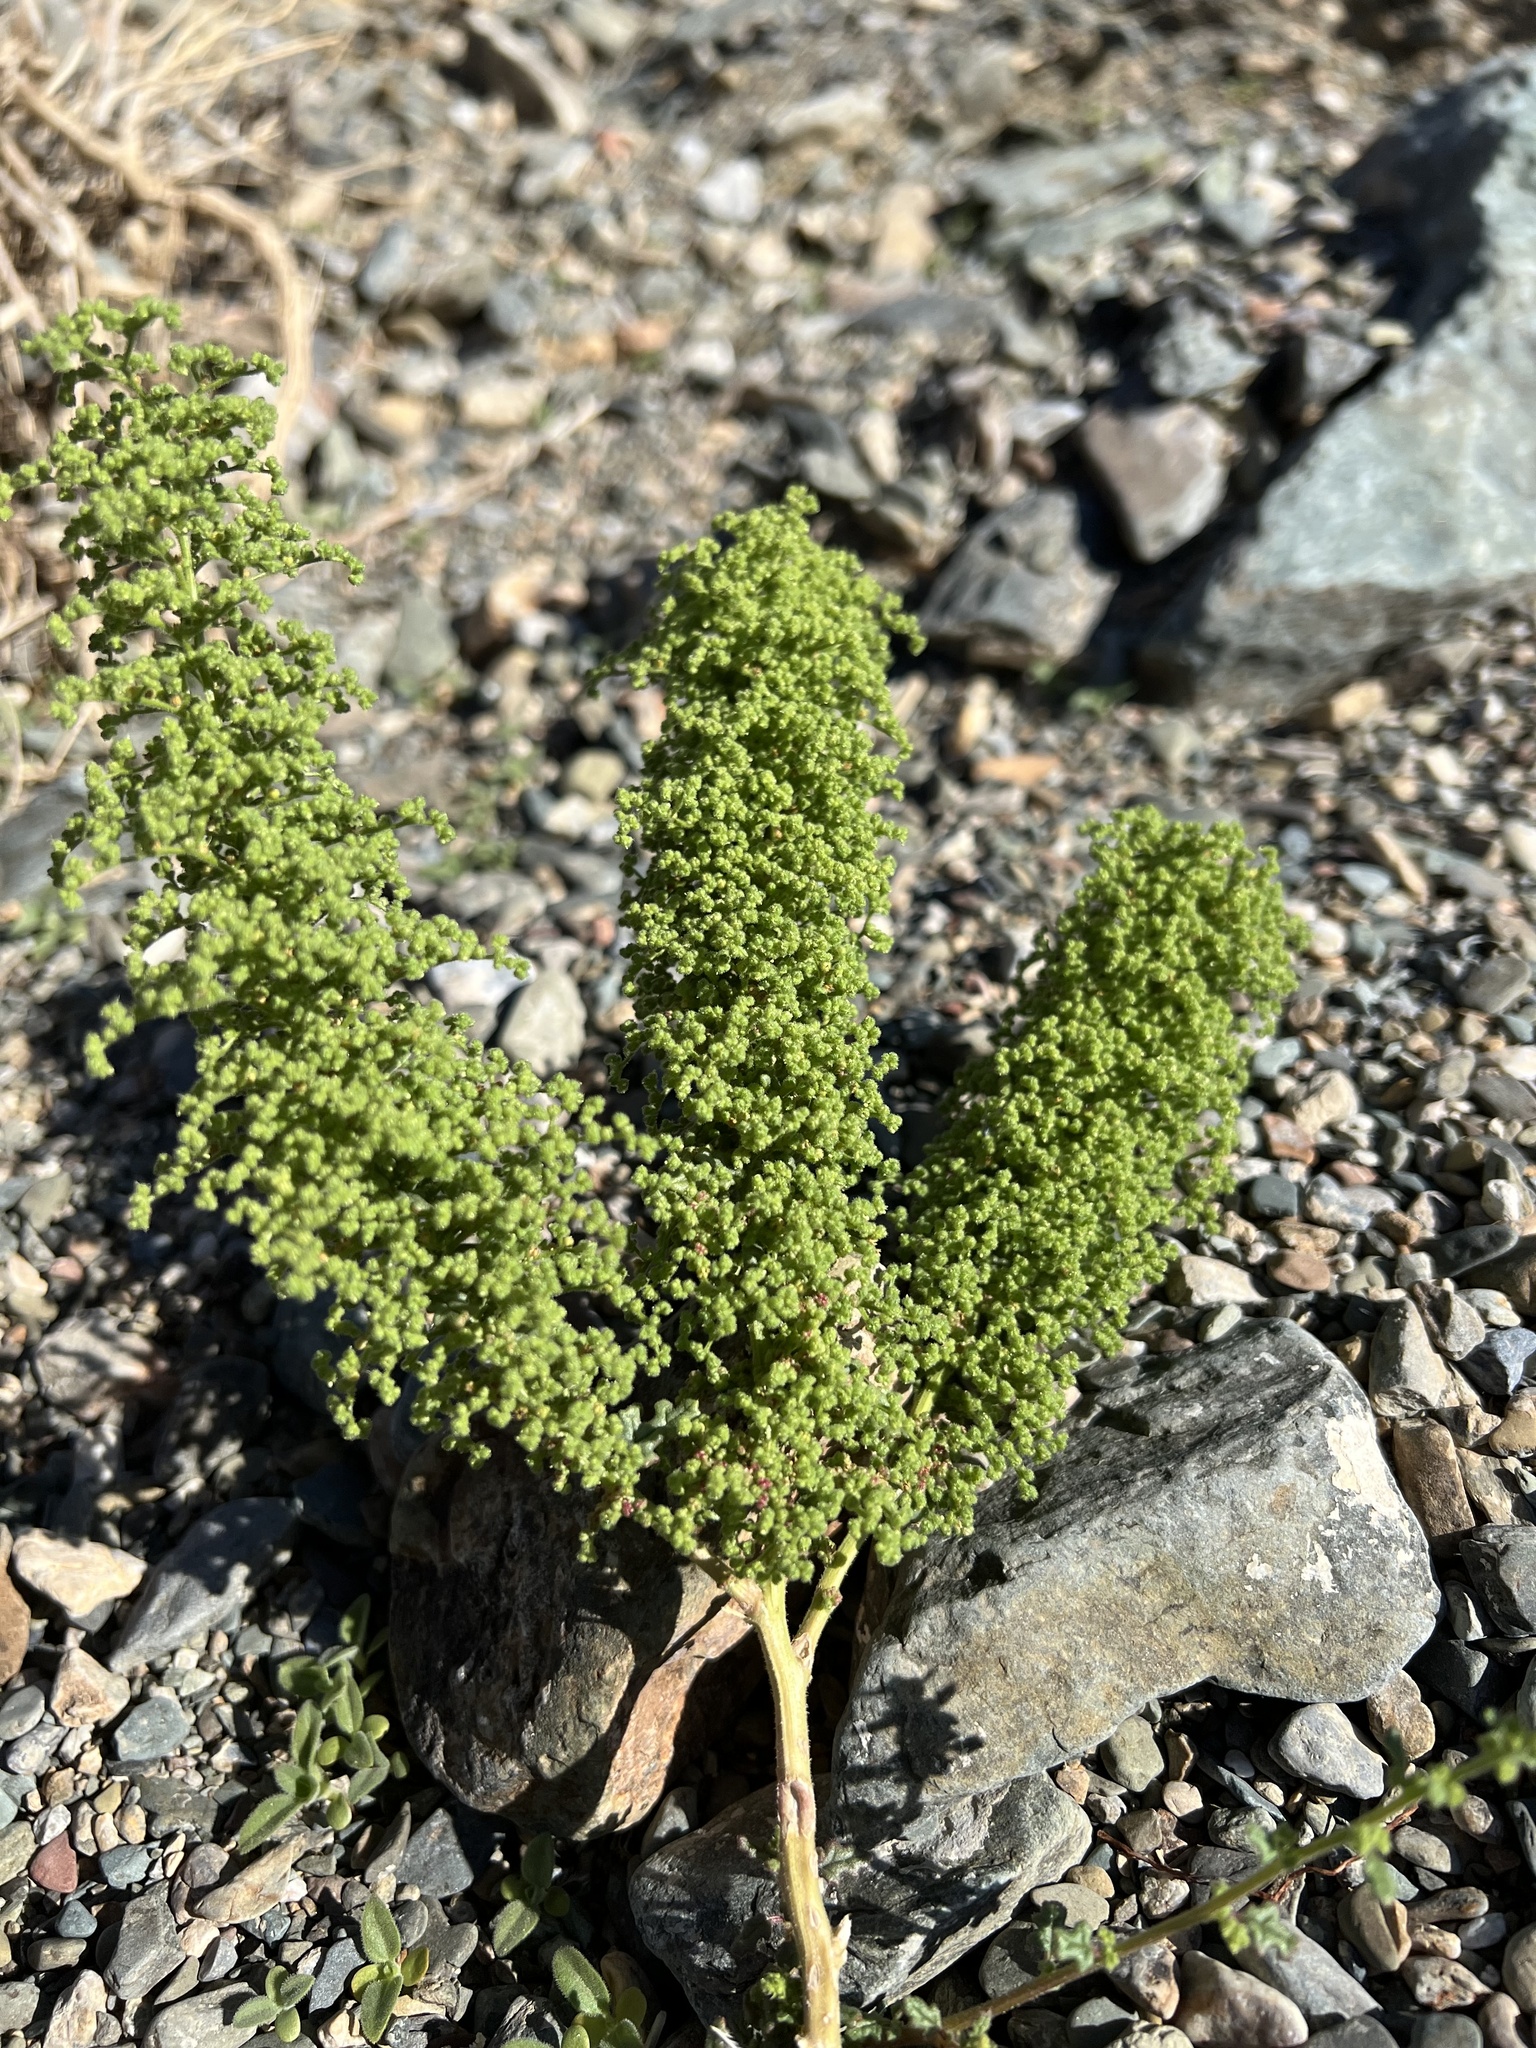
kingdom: Plantae
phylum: Tracheophyta
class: Magnoliopsida
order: Caryophyllales
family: Amaranthaceae
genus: Dysphania
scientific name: Dysphania botrys
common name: Feather-geranium
